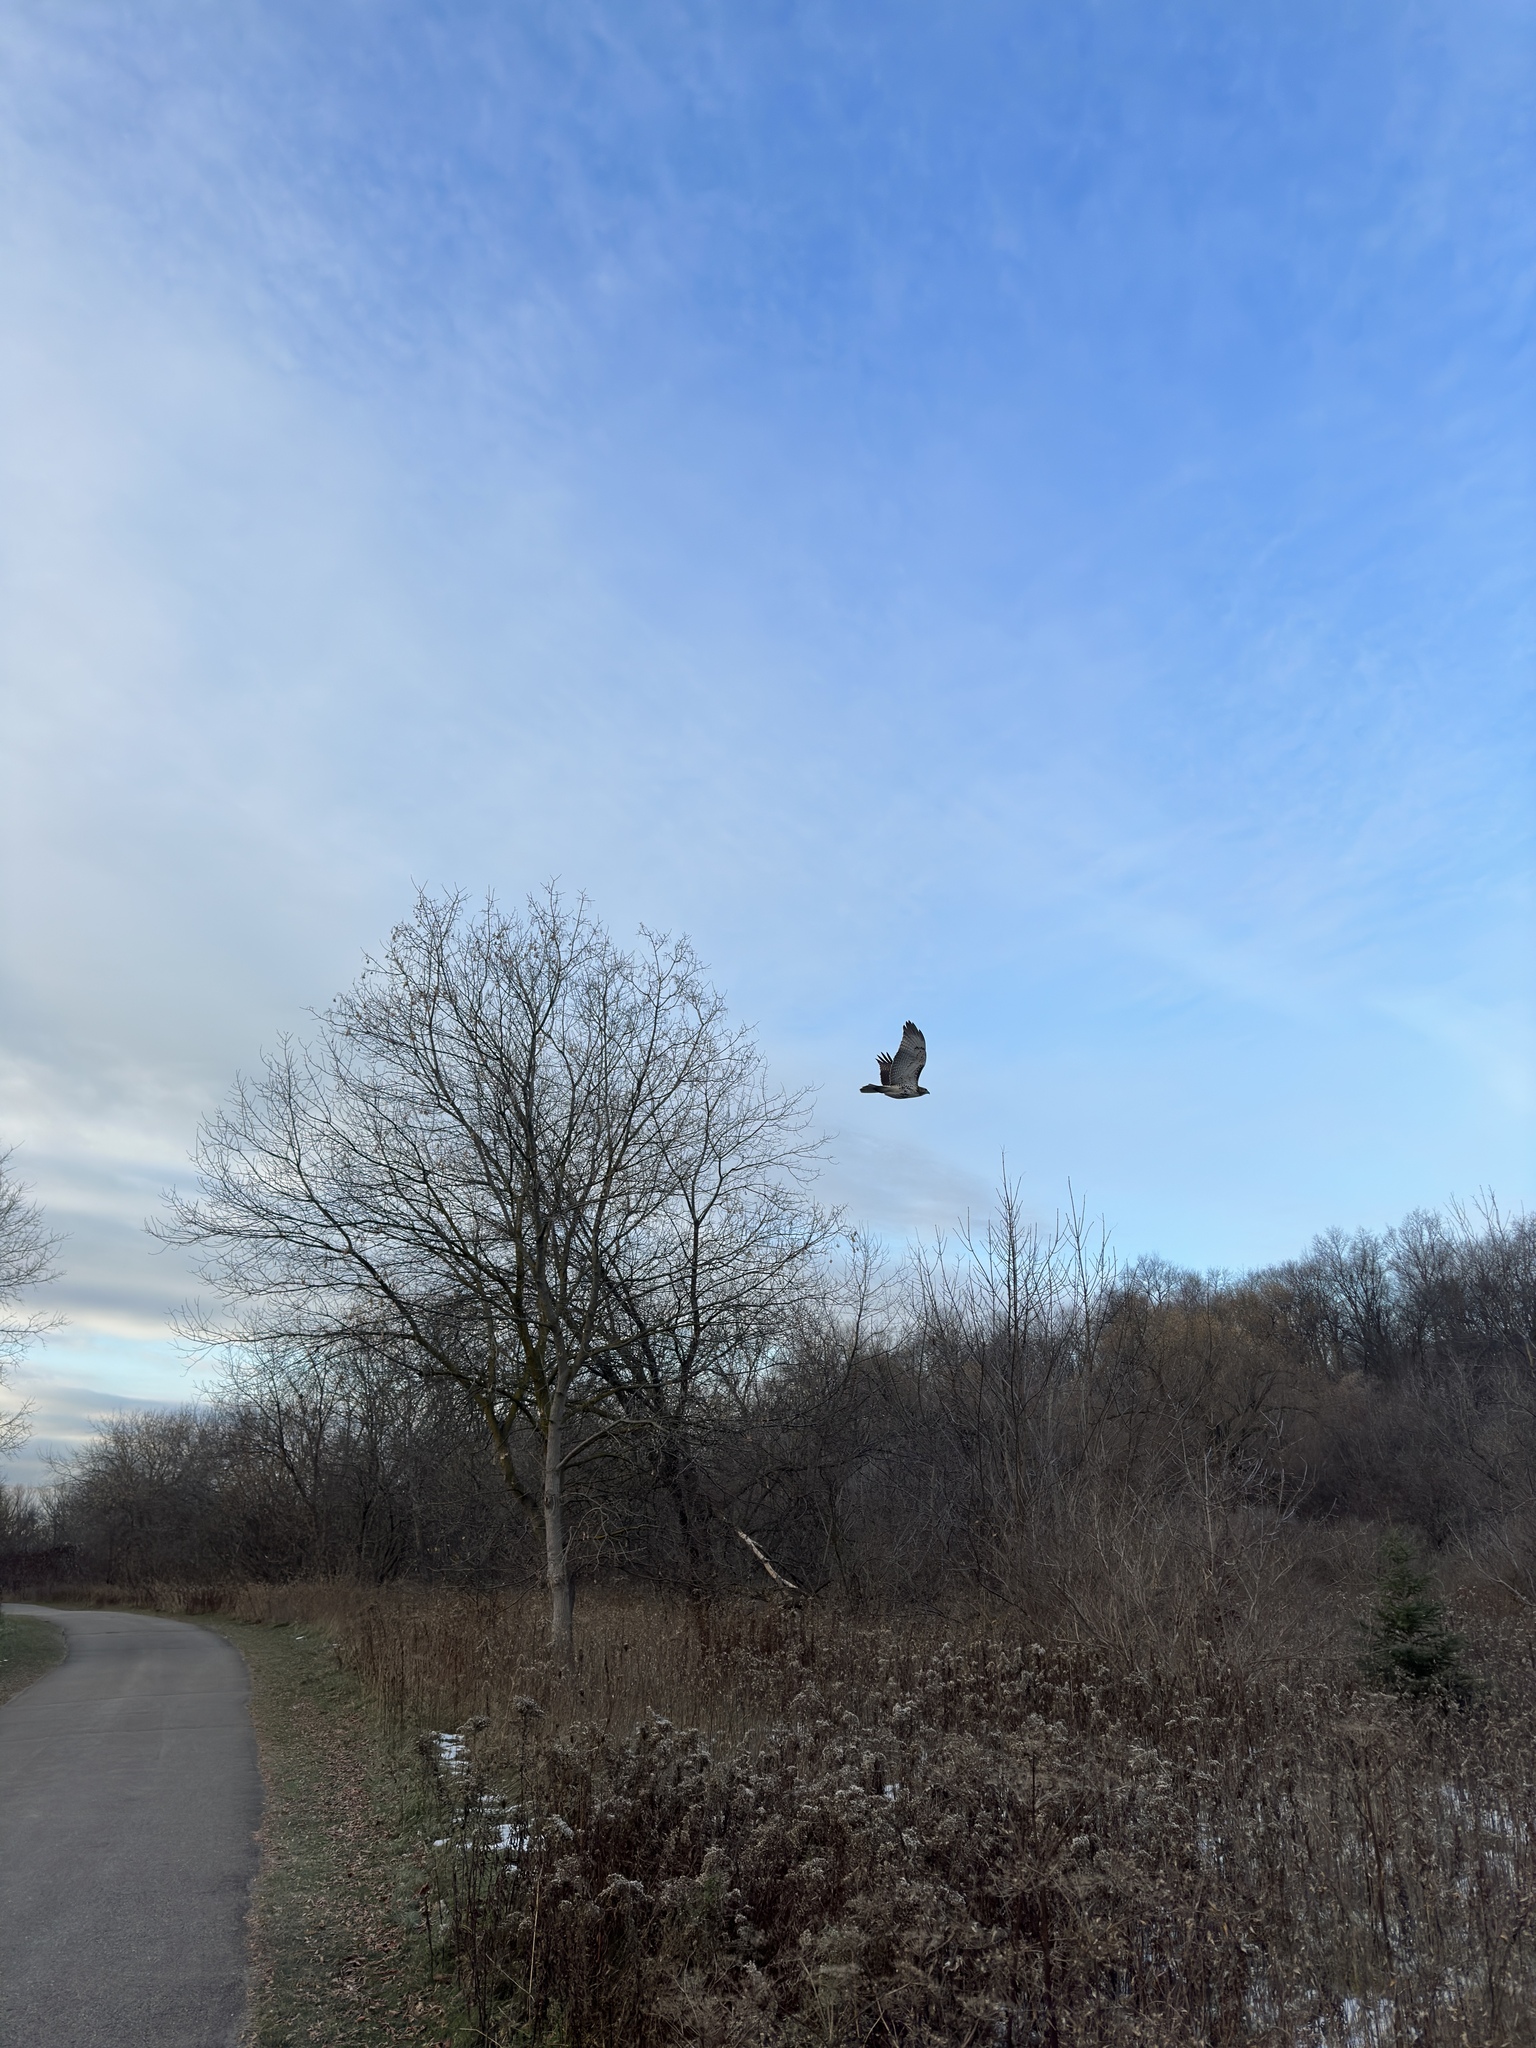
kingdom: Animalia
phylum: Chordata
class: Aves
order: Accipitriformes
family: Accipitridae
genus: Buteo
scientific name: Buteo jamaicensis
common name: Red-tailed hawk
